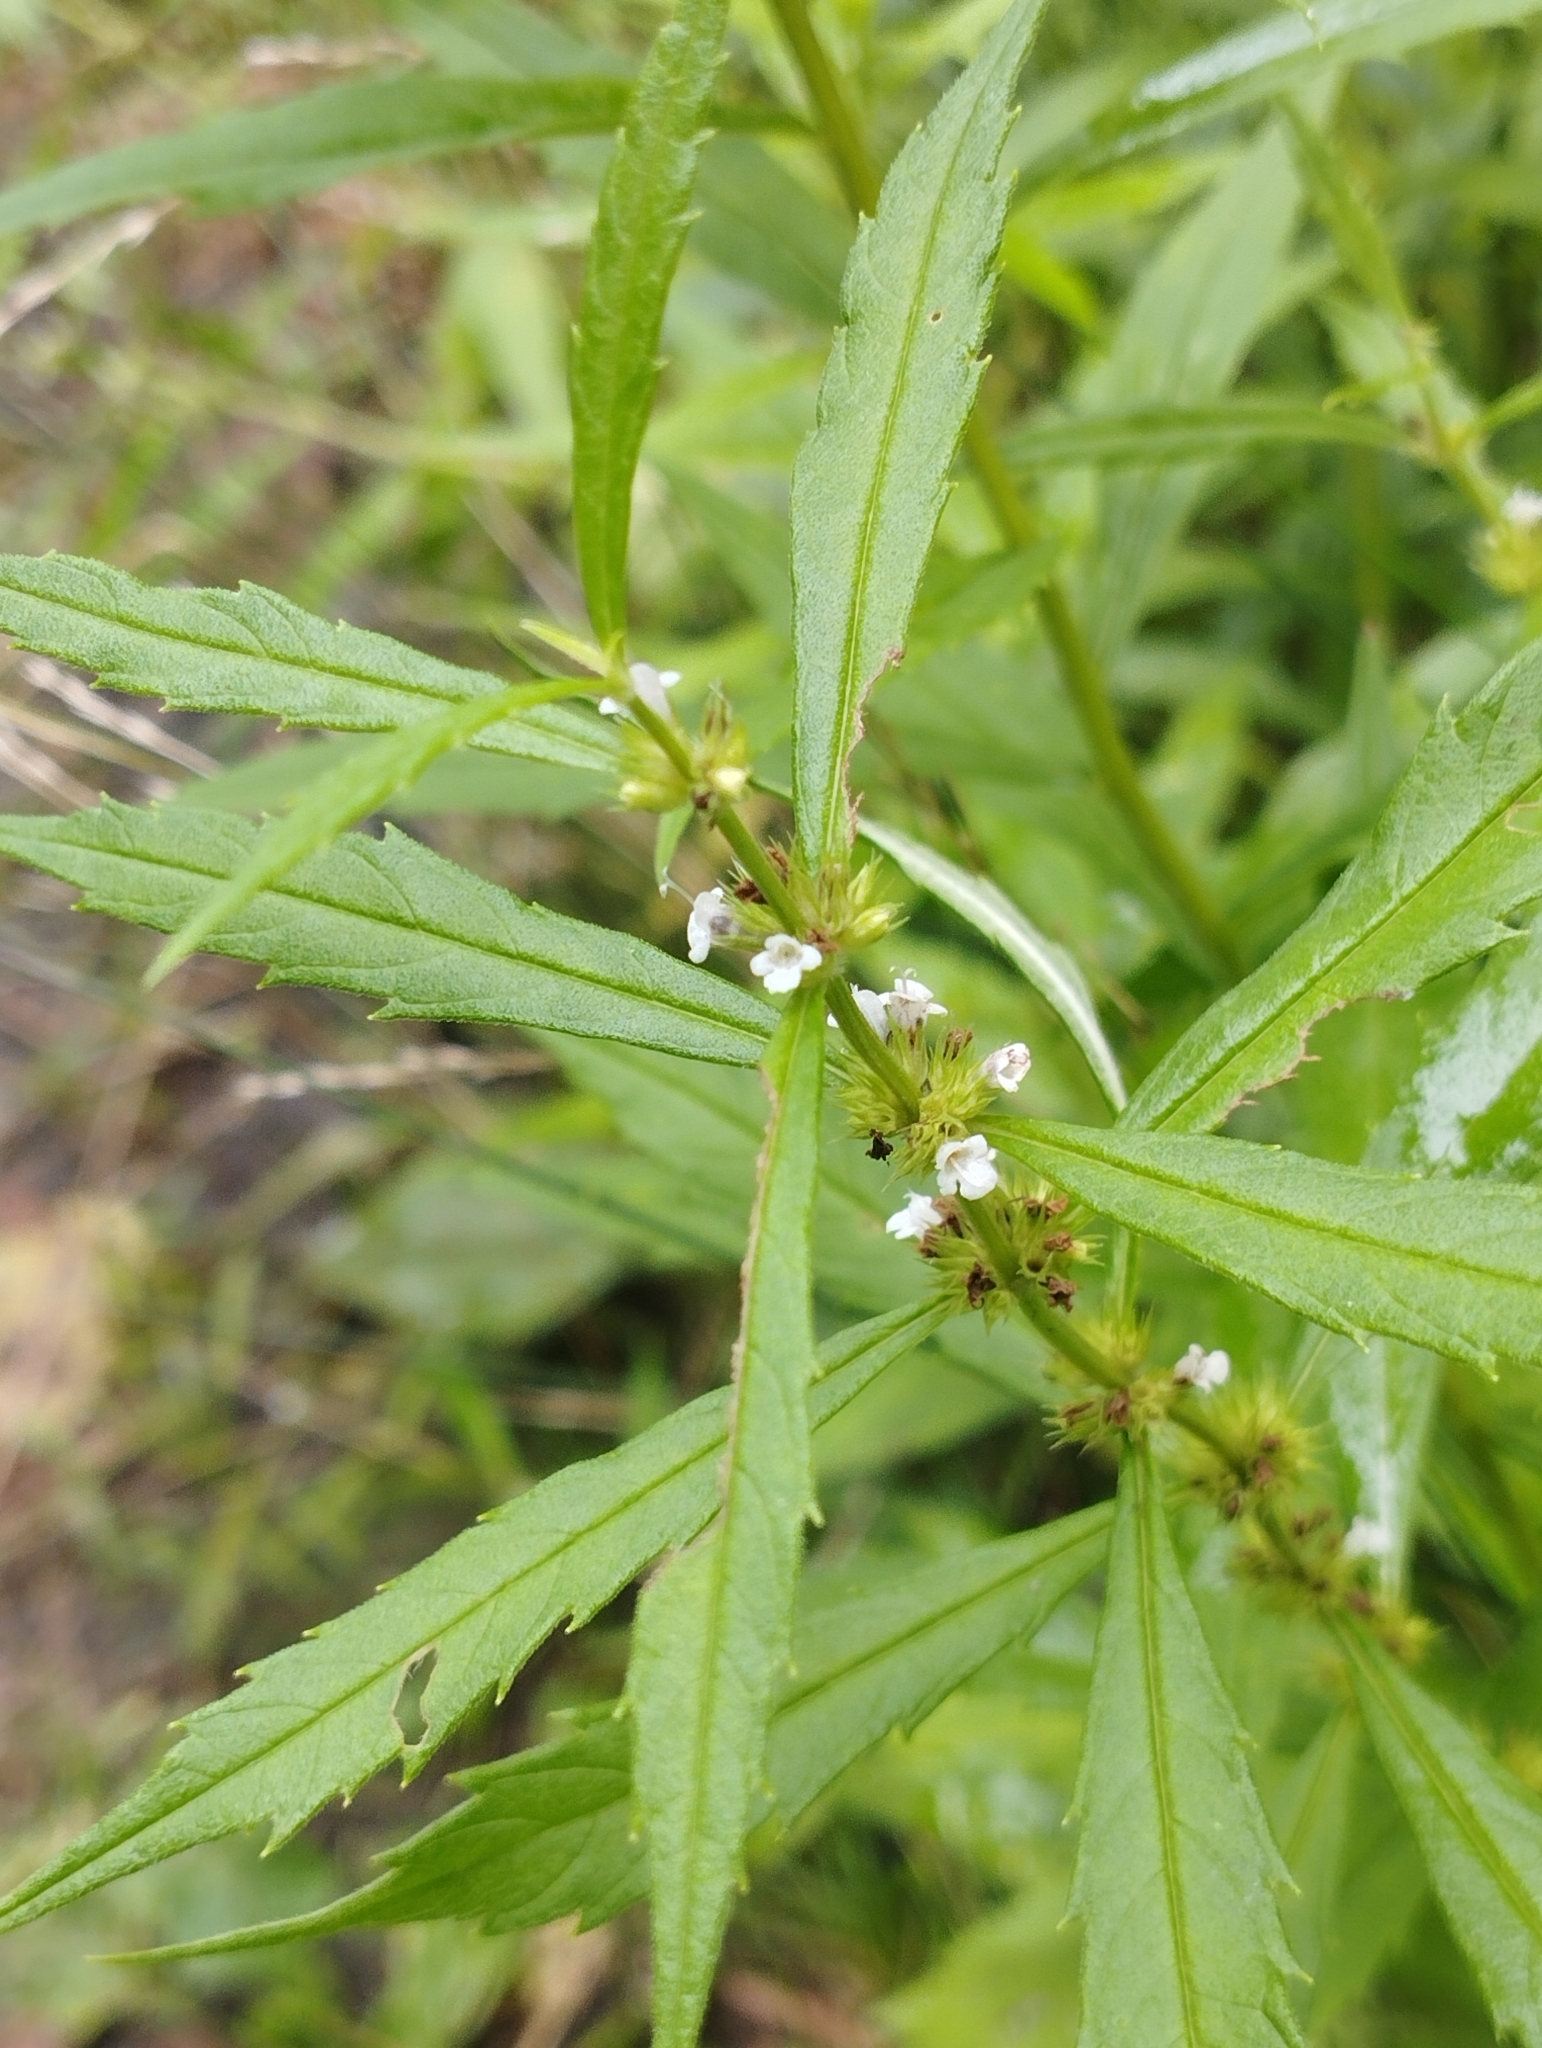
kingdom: Plantae
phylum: Tracheophyta
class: Magnoliopsida
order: Lamiales
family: Lamiaceae
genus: Lycopus
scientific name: Lycopus lucidus
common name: Shiny bugleweed
